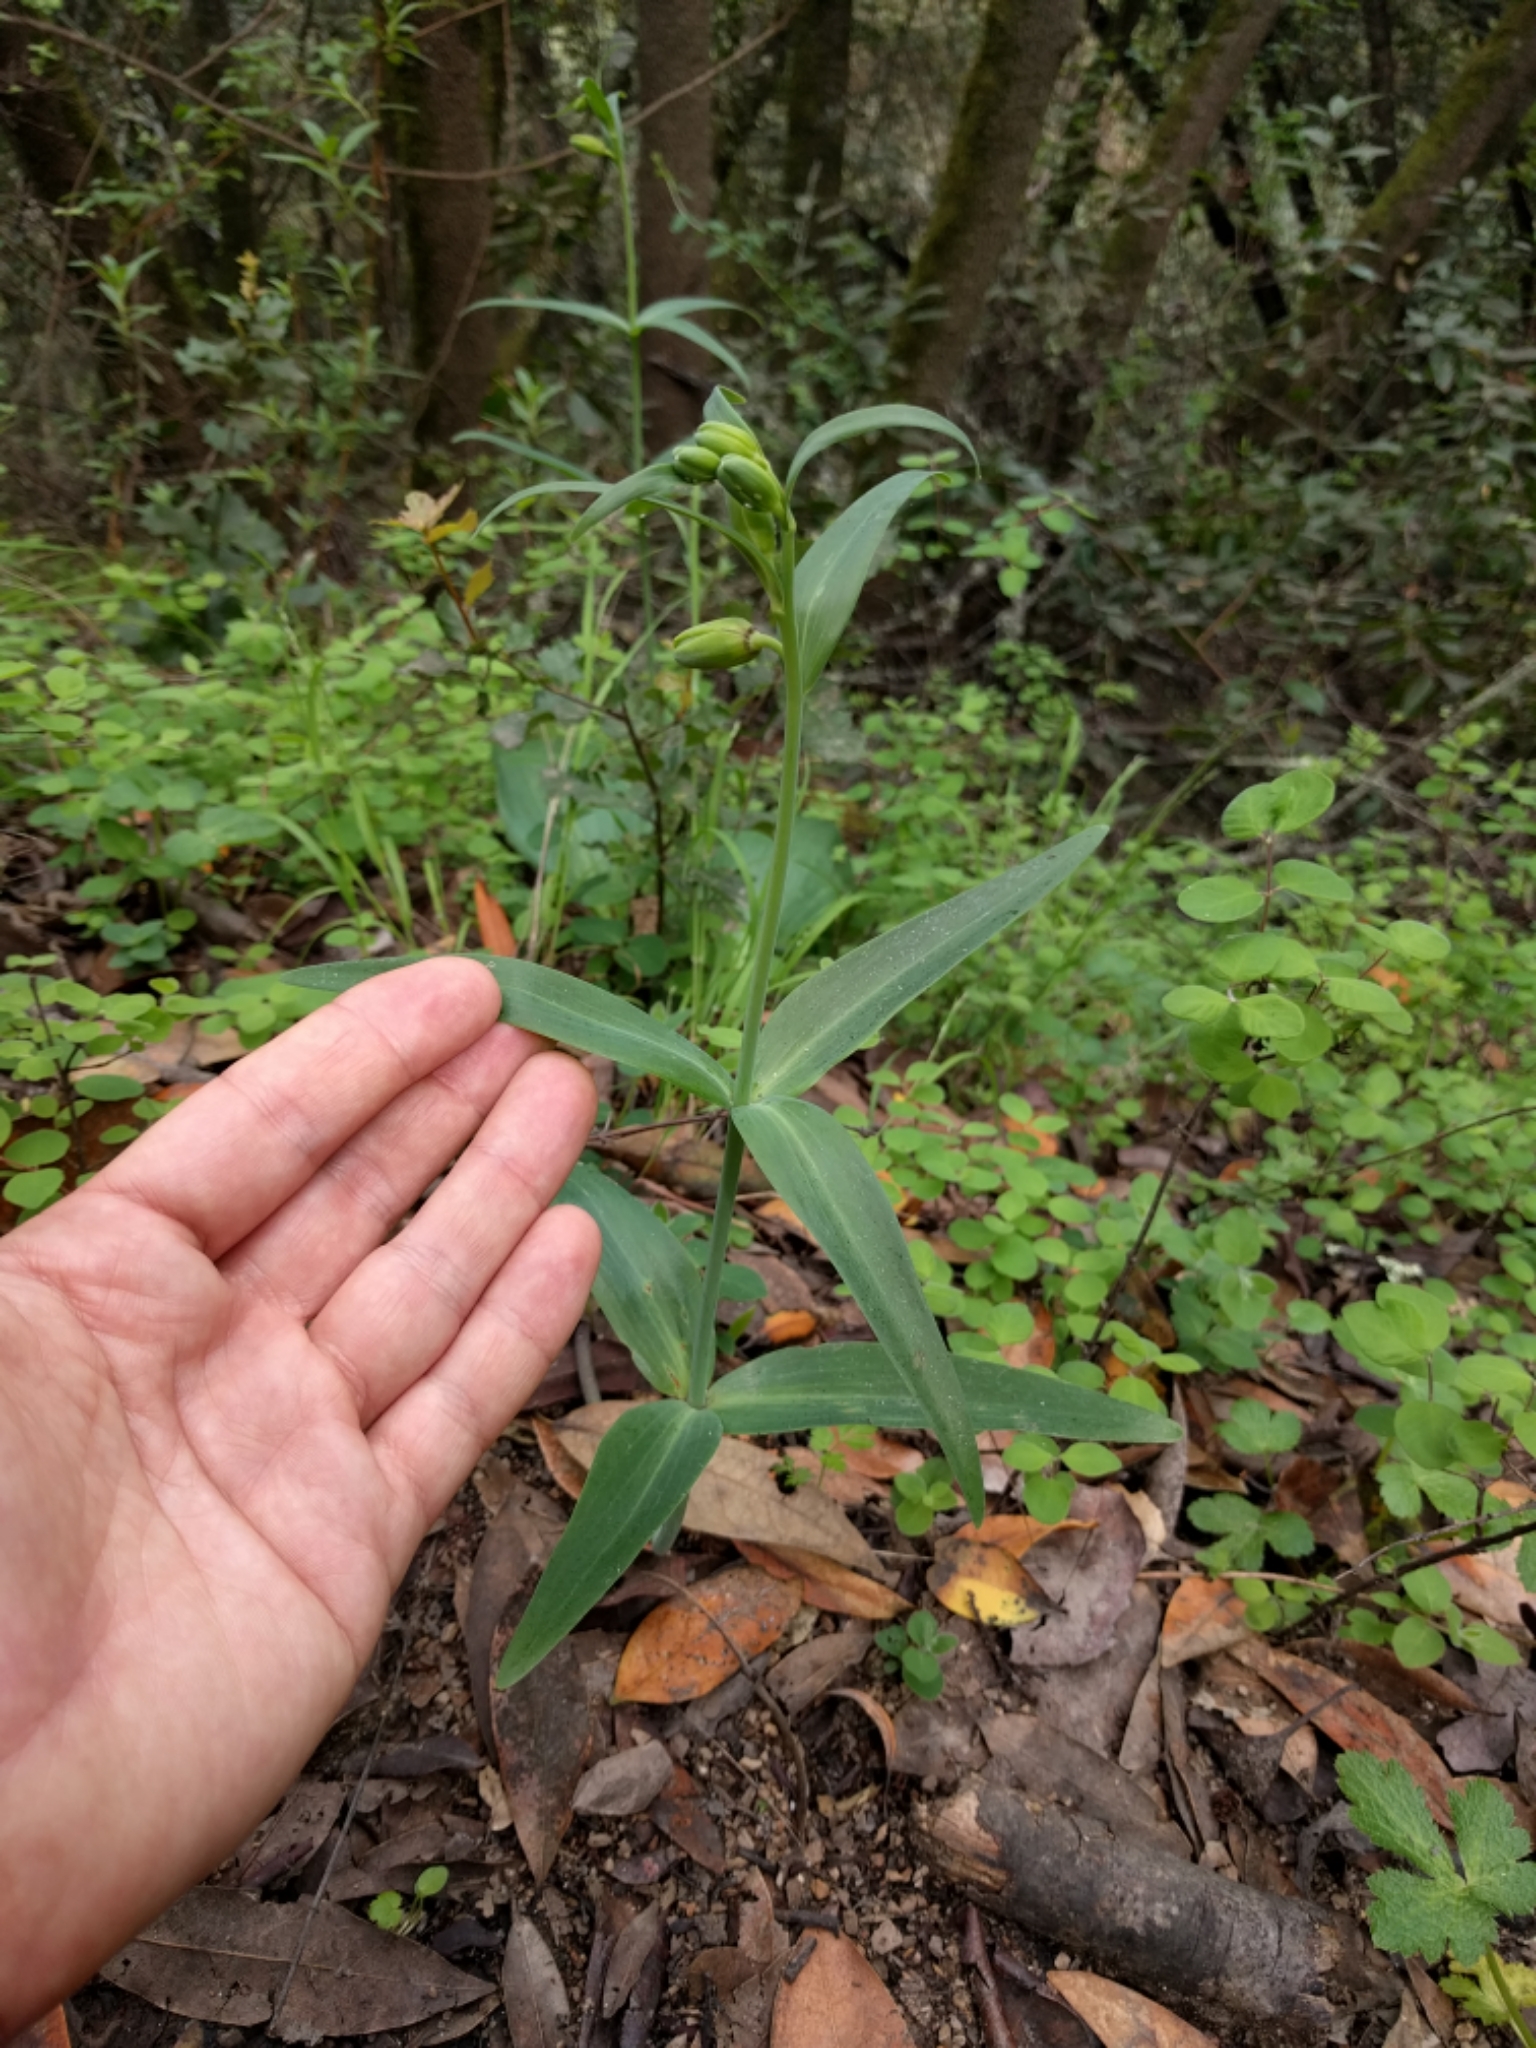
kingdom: Plantae
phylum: Tracheophyta
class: Liliopsida
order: Liliales
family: Liliaceae
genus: Fritillaria
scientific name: Fritillaria affinis
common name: Ojai fritillary
